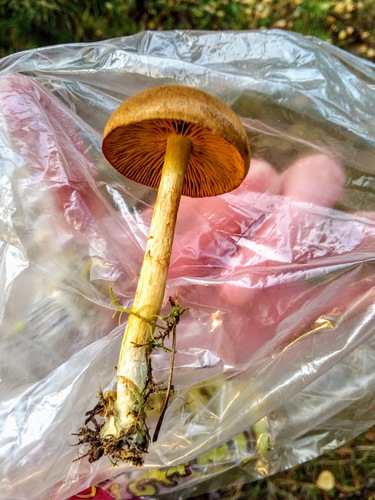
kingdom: Fungi
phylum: Basidiomycota
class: Agaricomycetes
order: Agaricales
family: Cortinariaceae
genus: Cortinarius
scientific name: Cortinarius cinnamomeus
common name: Cinnamon webcap
